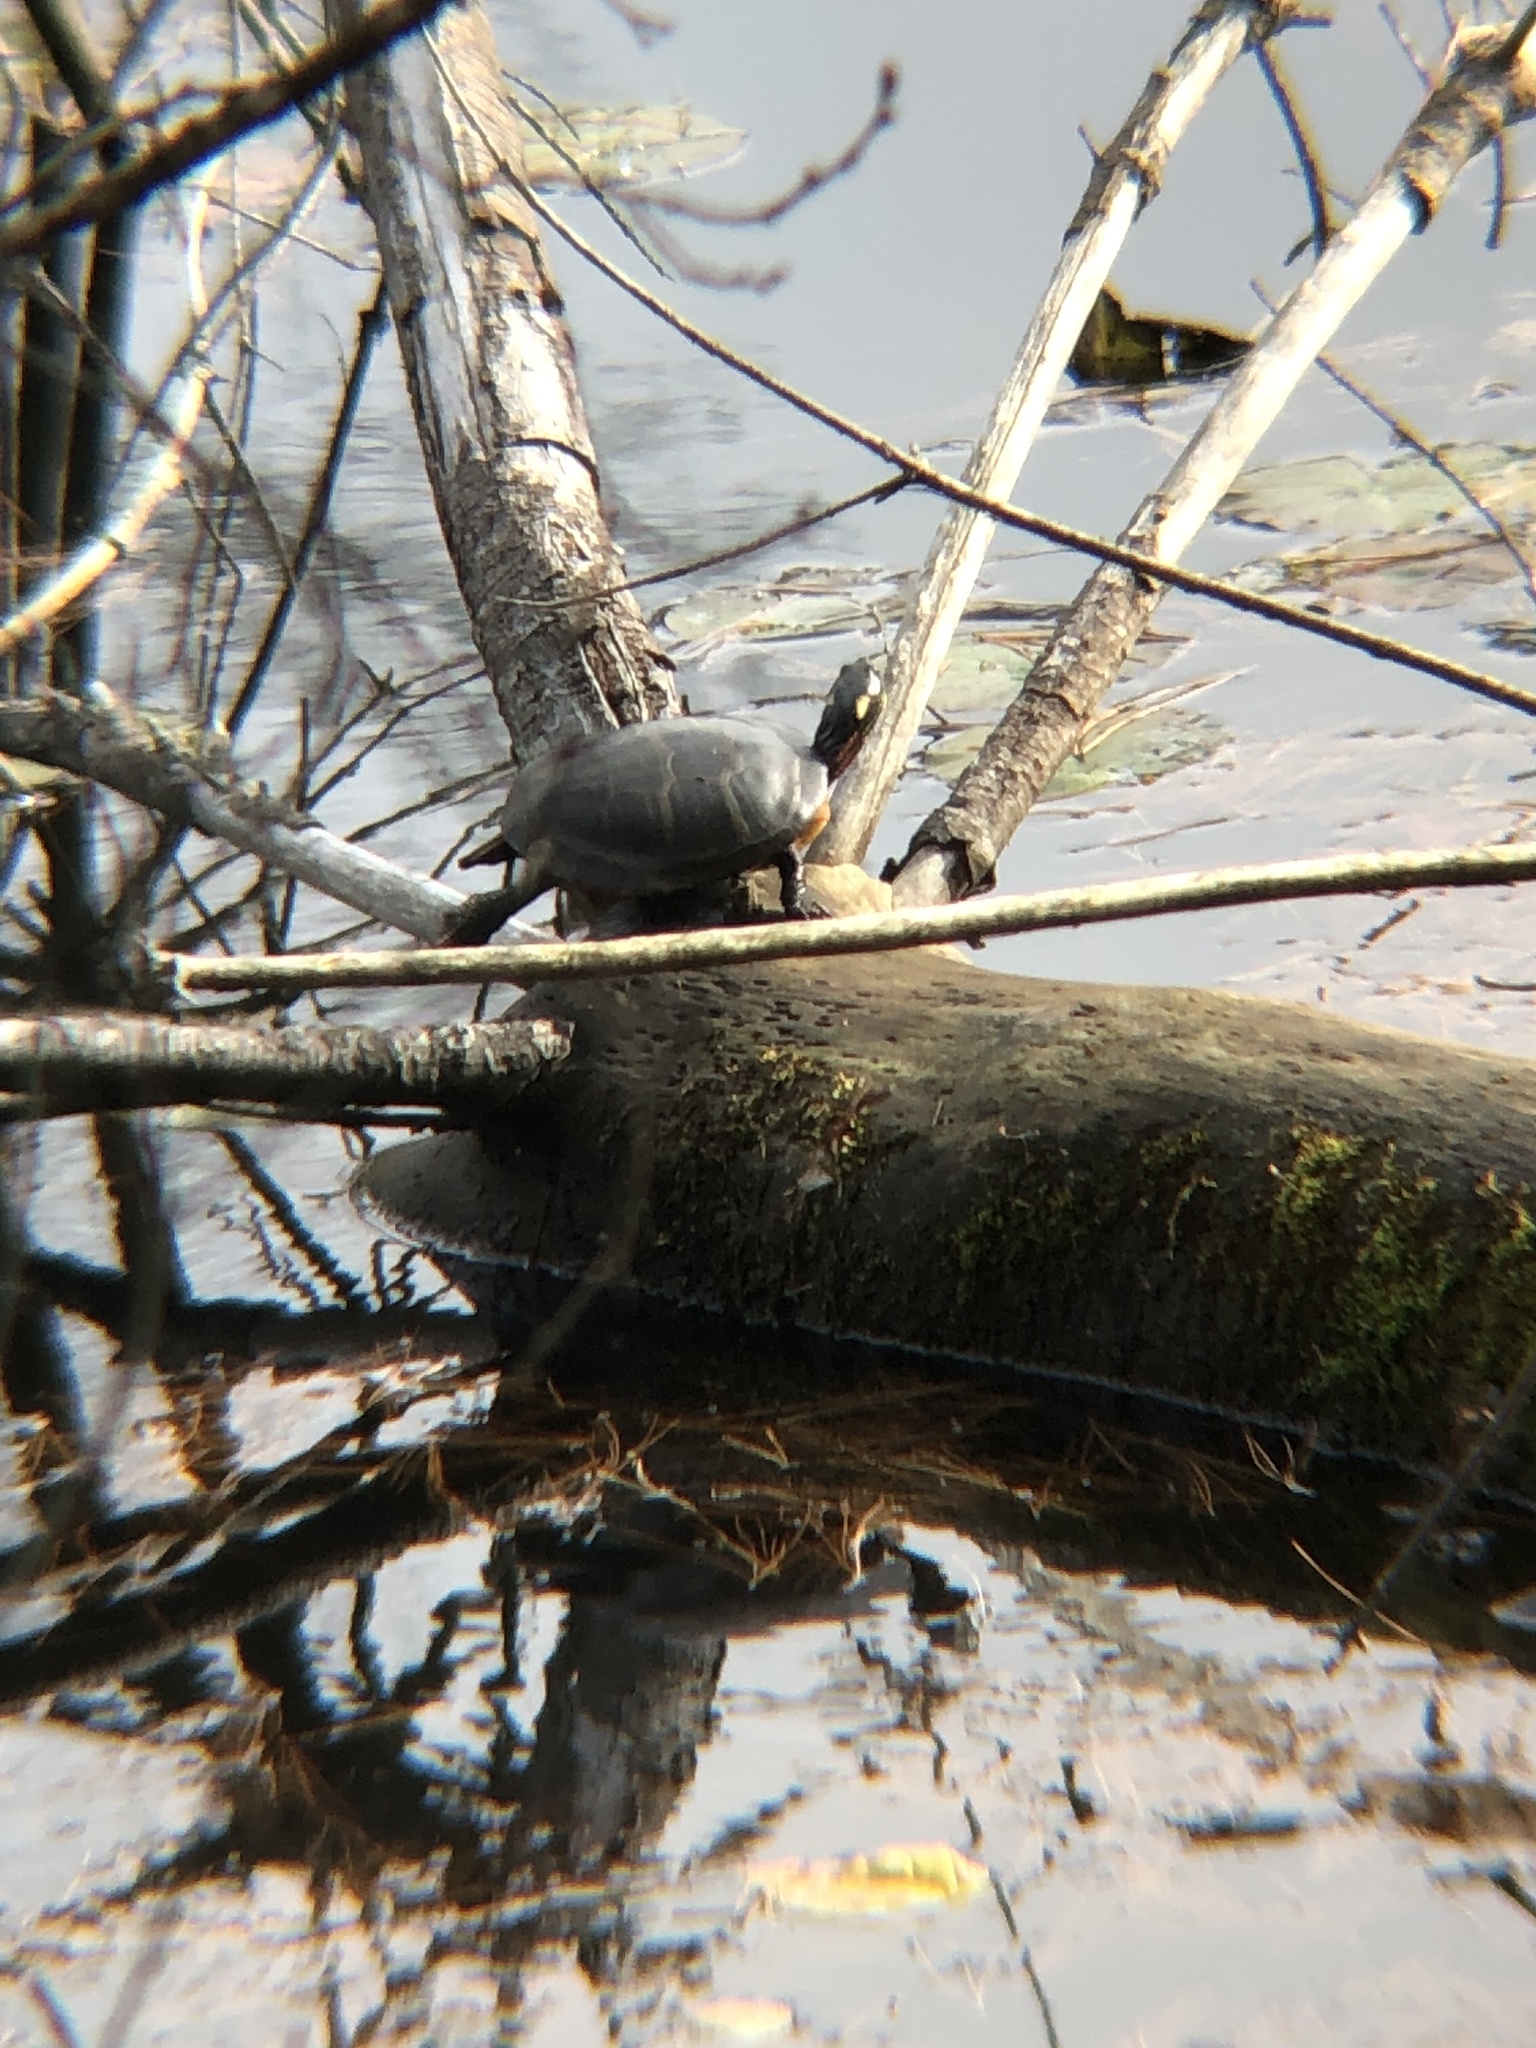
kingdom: Animalia
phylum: Chordata
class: Testudines
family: Emydidae
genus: Chrysemys
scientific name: Chrysemys picta
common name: Painted turtle
